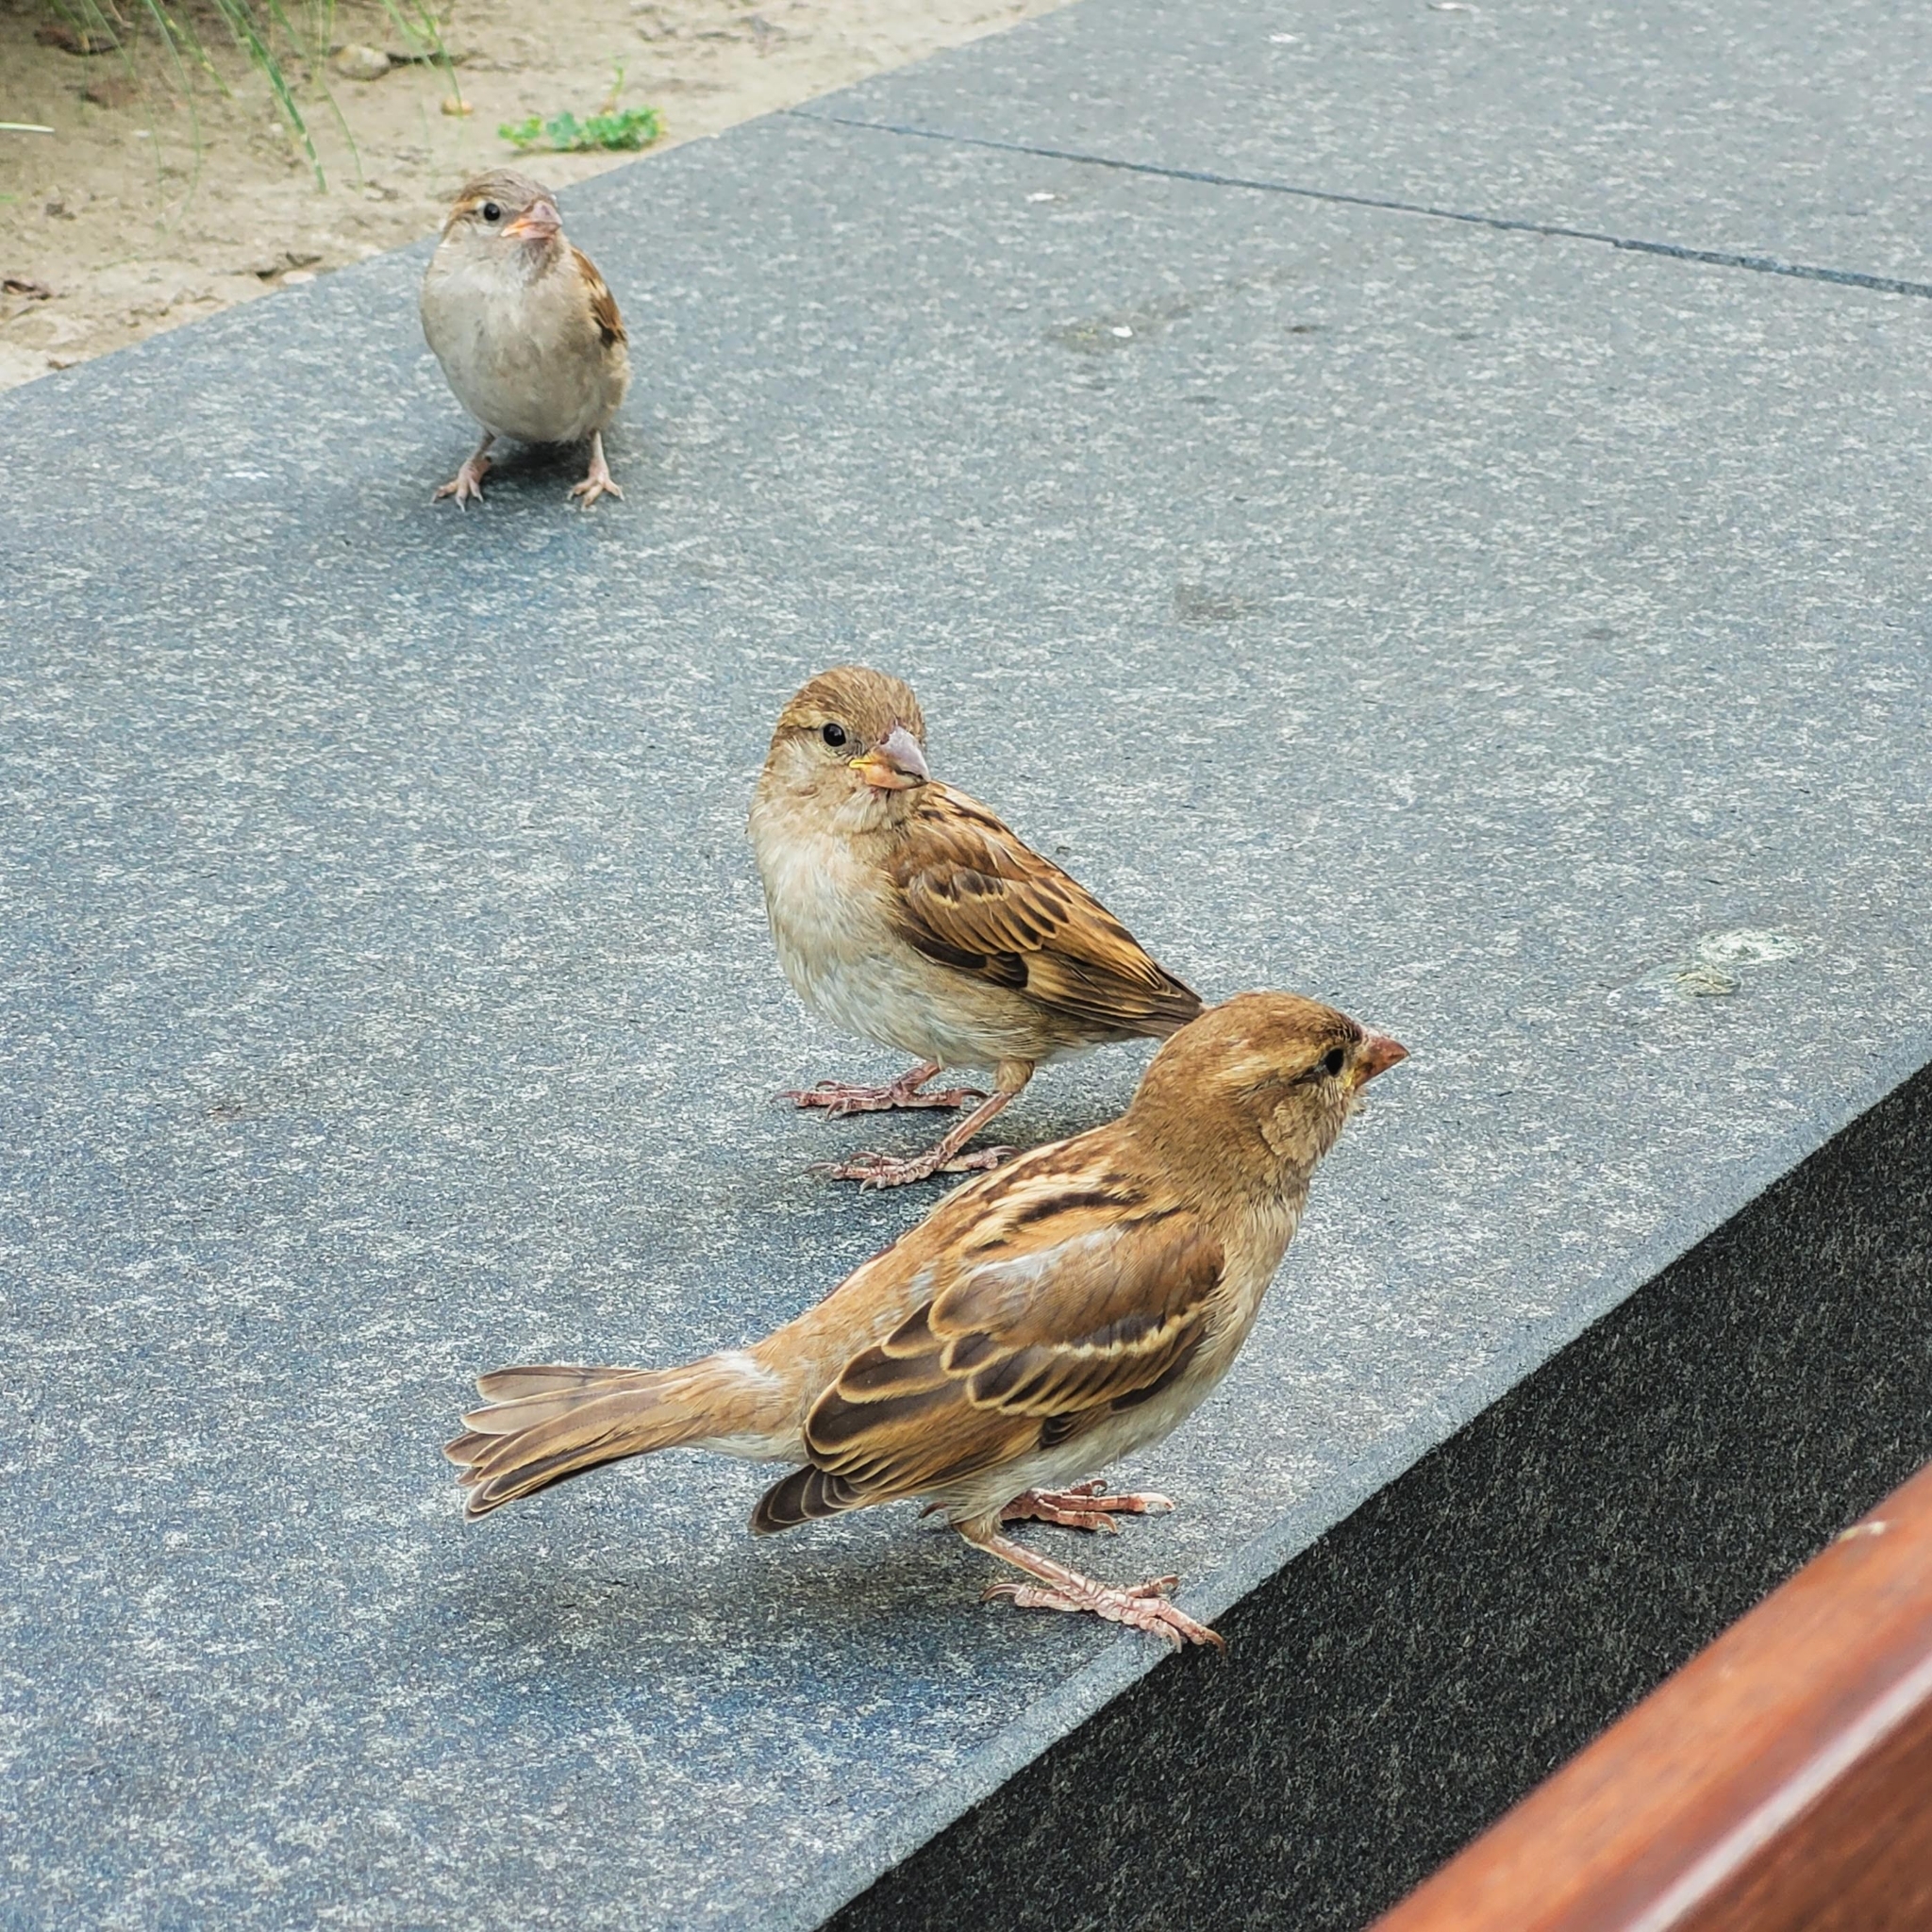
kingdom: Animalia
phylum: Chordata
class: Aves
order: Passeriformes
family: Passeridae
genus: Passer
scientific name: Passer domesticus
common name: House sparrow
